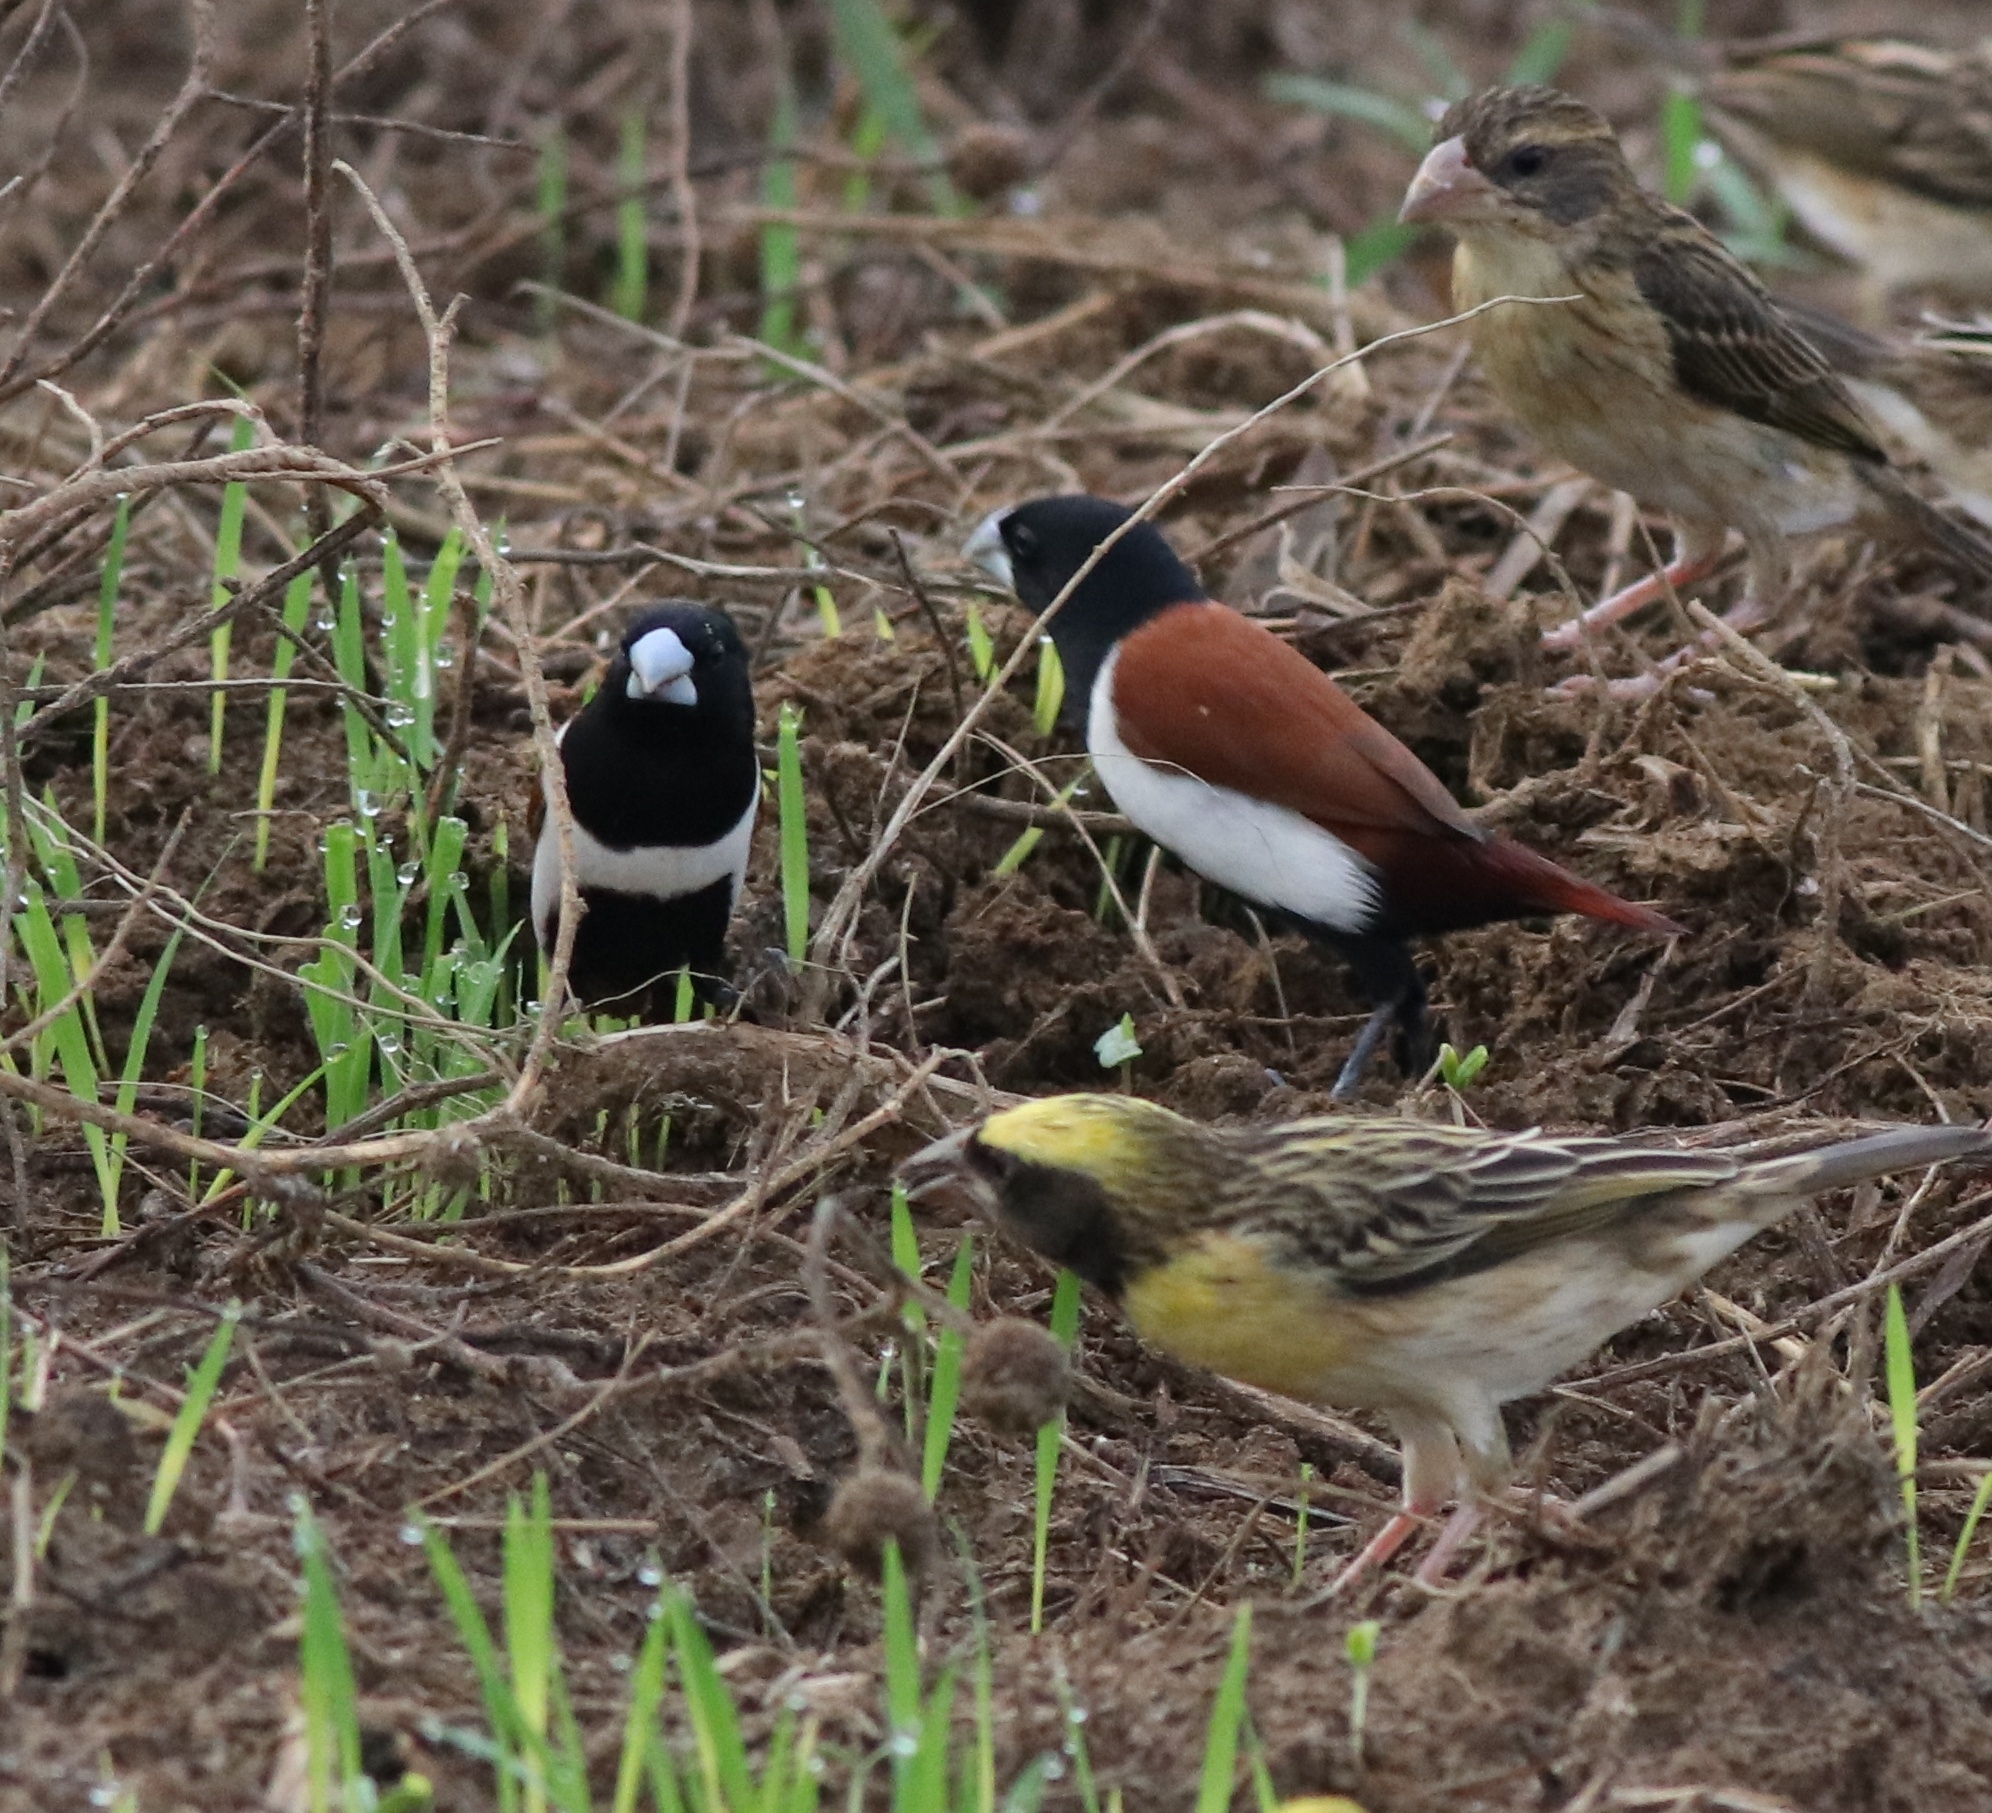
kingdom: Animalia
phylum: Chordata
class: Aves
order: Passeriformes
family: Estrildidae
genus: Lonchura
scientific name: Lonchura malacca
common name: Tricolored munia
